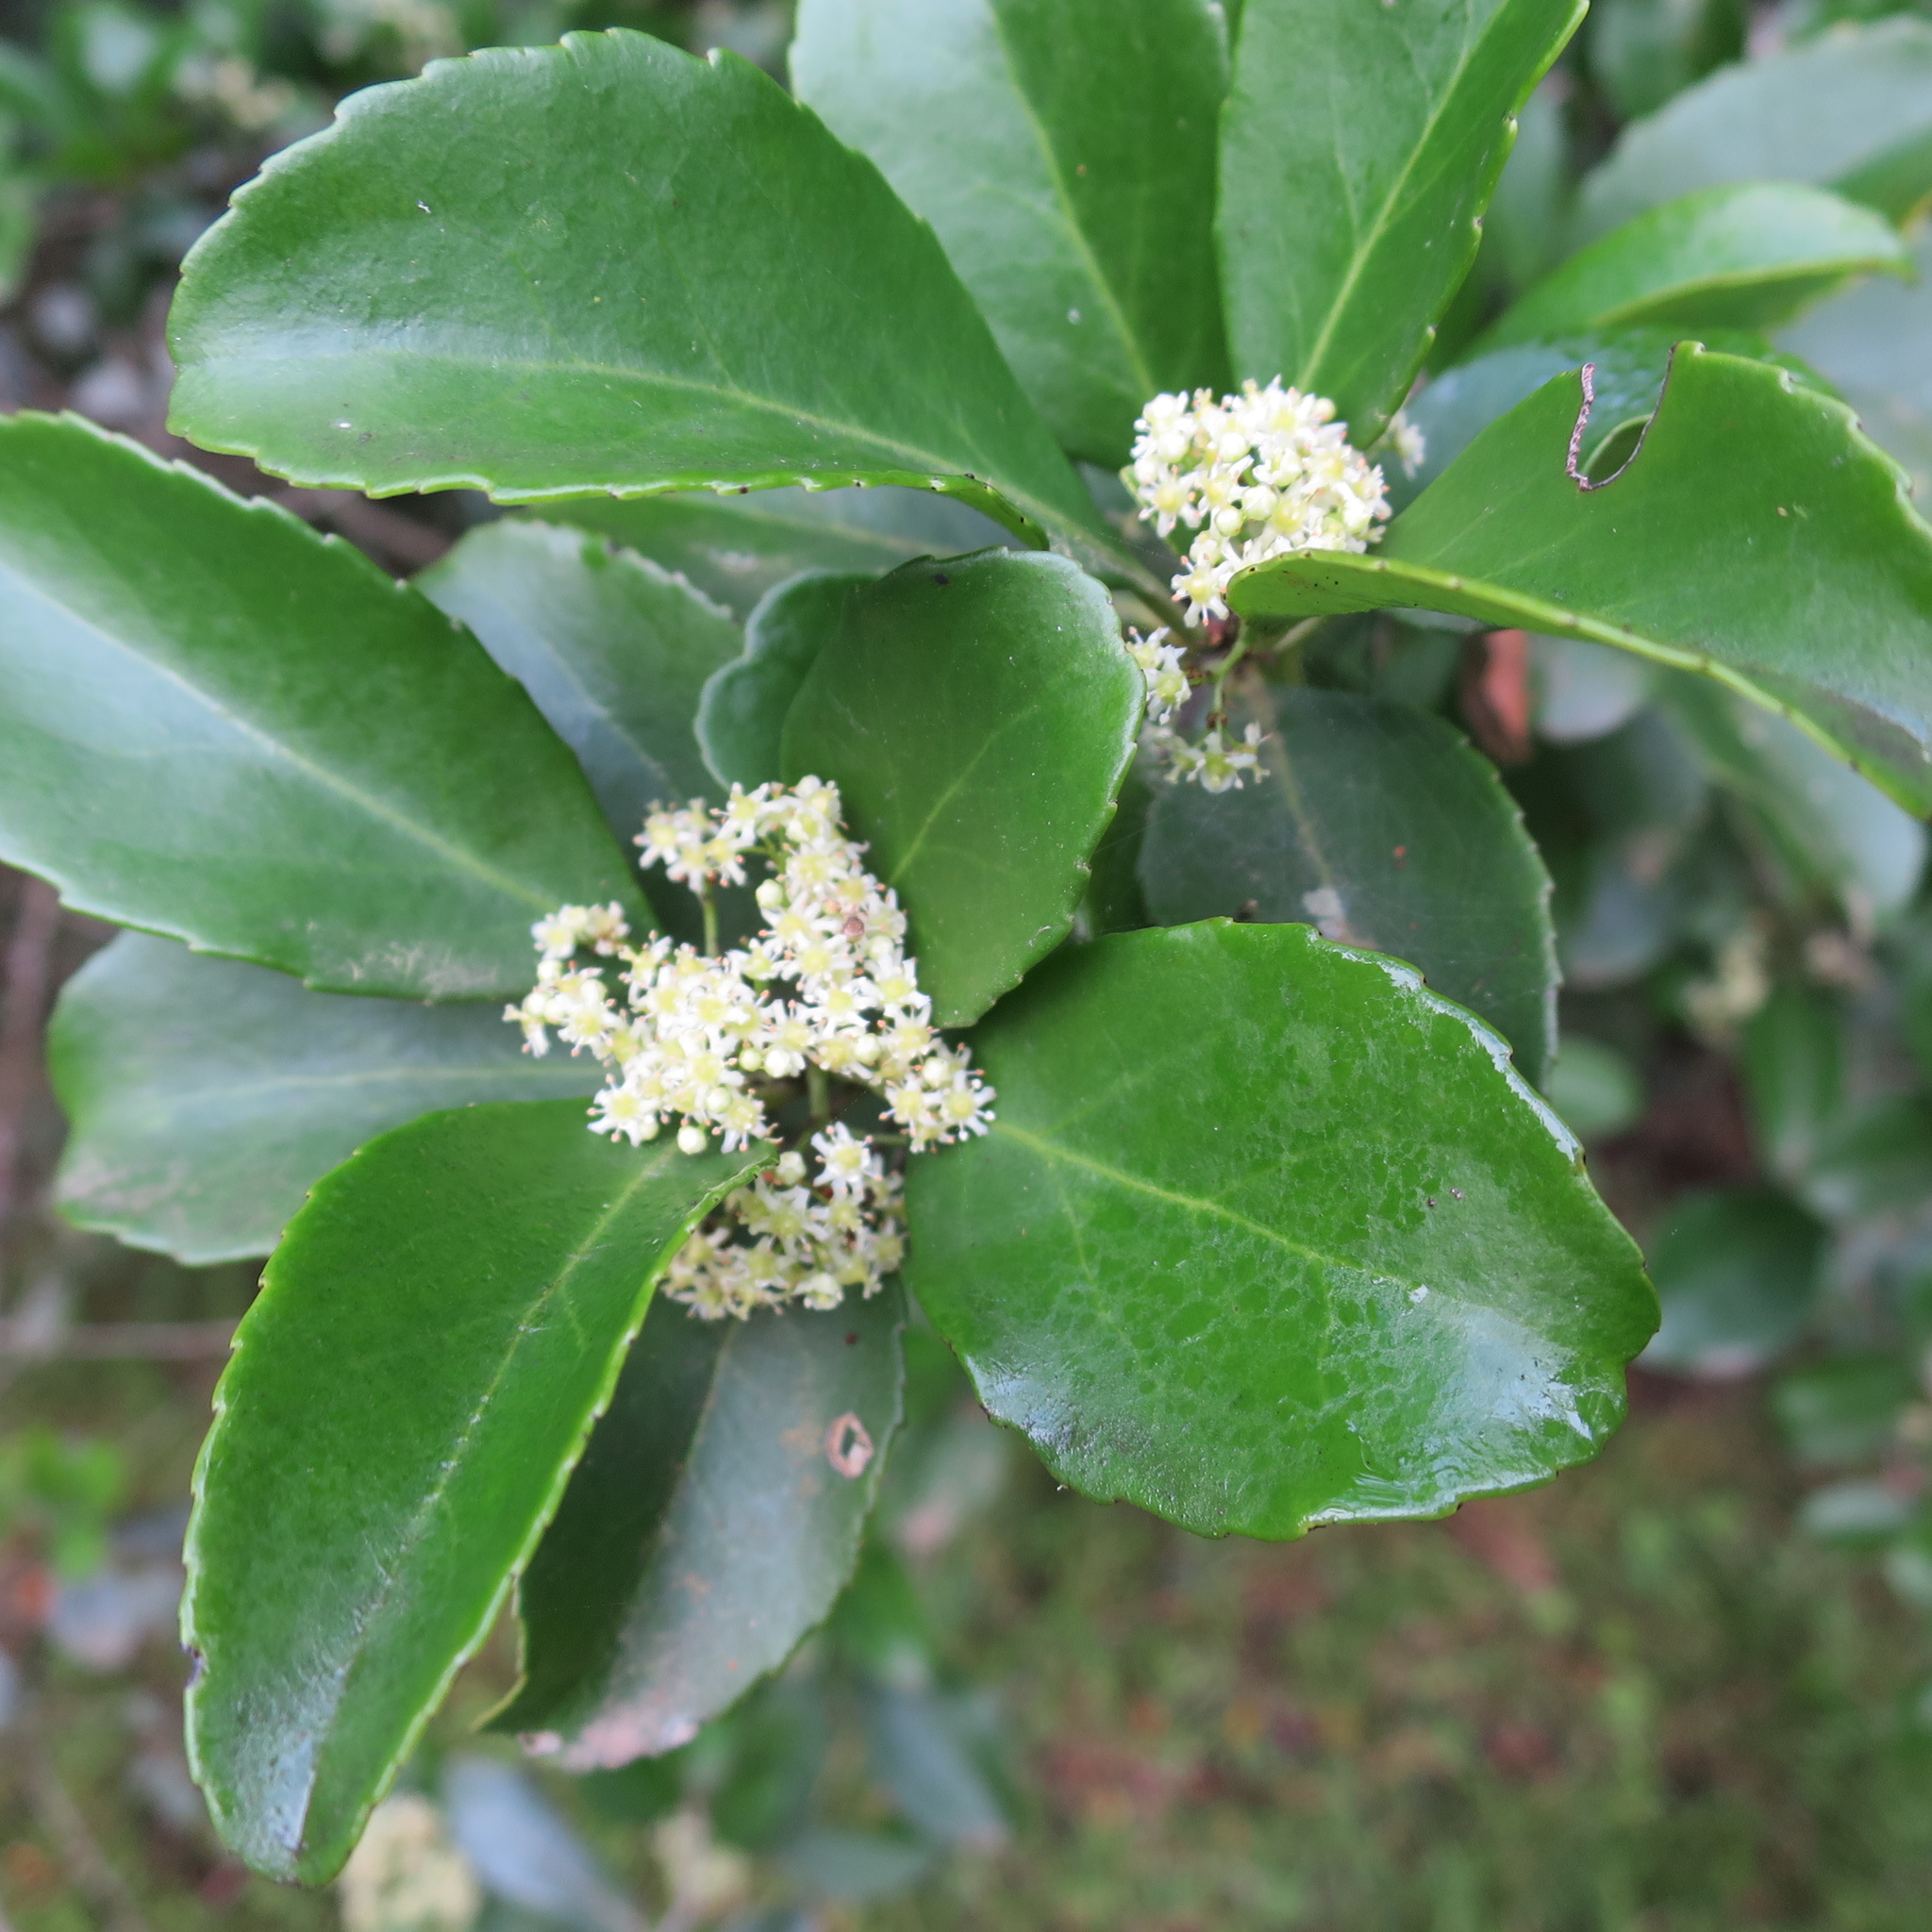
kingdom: Plantae
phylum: Tracheophyta
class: Magnoliopsida
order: Celastrales
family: Celastraceae
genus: Gymnosporia
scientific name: Gymnosporia nemorosa
